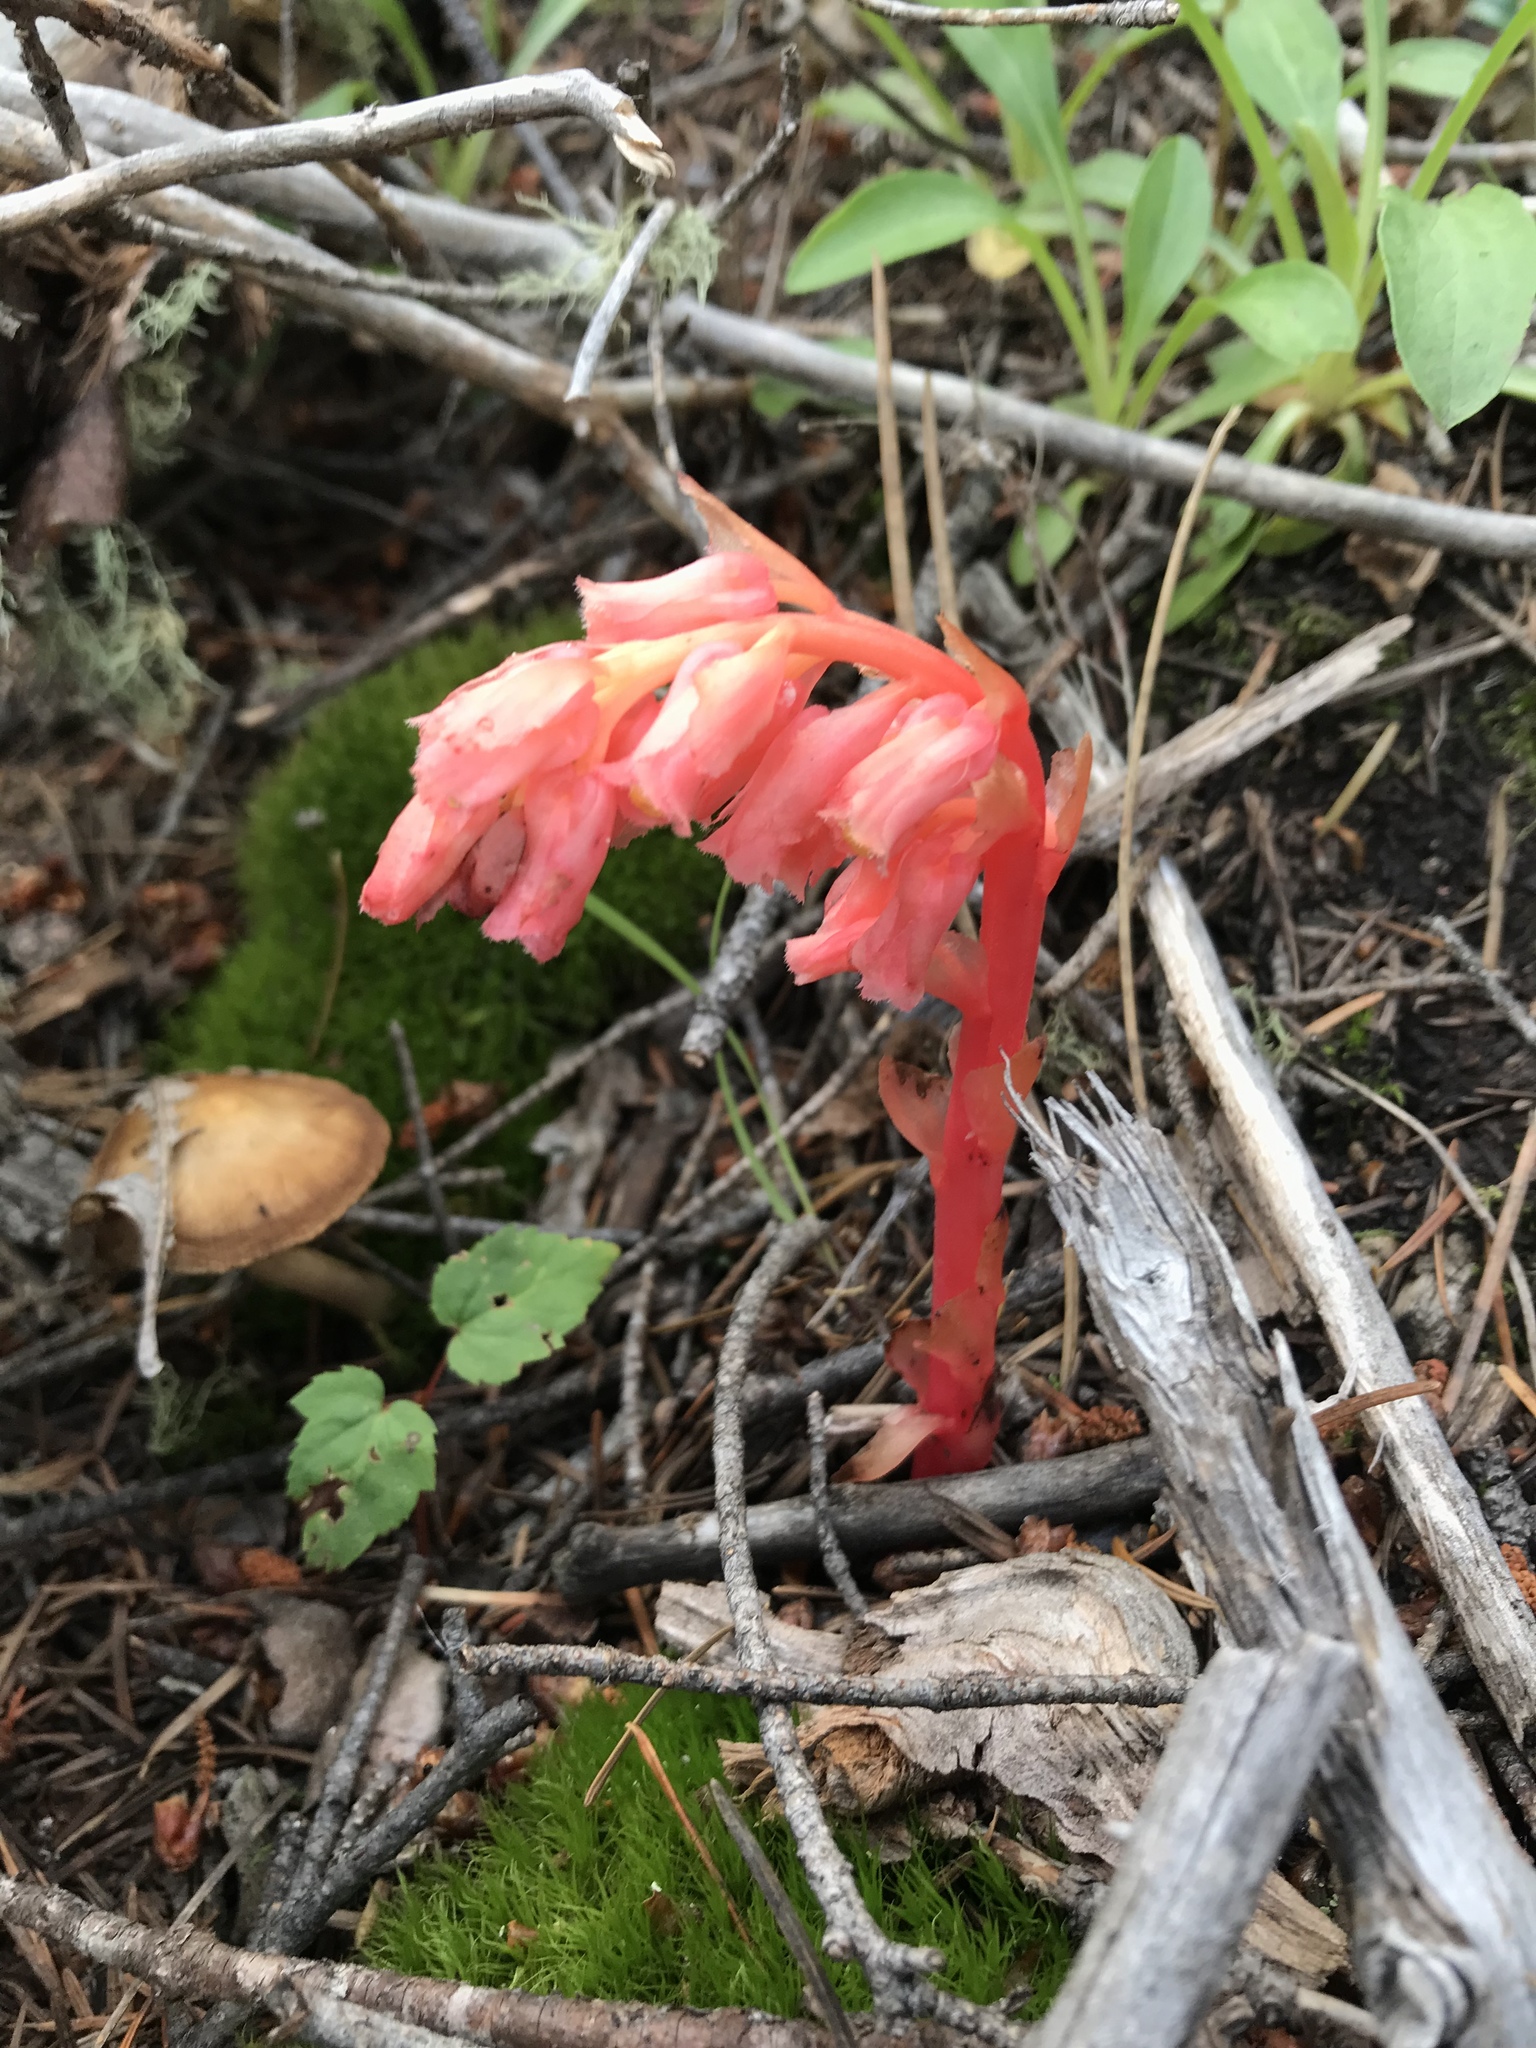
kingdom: Plantae
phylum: Tracheophyta
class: Magnoliopsida
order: Ericales
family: Ericaceae
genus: Hypopitys
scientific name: Hypopitys monotropa
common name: Yellow bird's-nest
